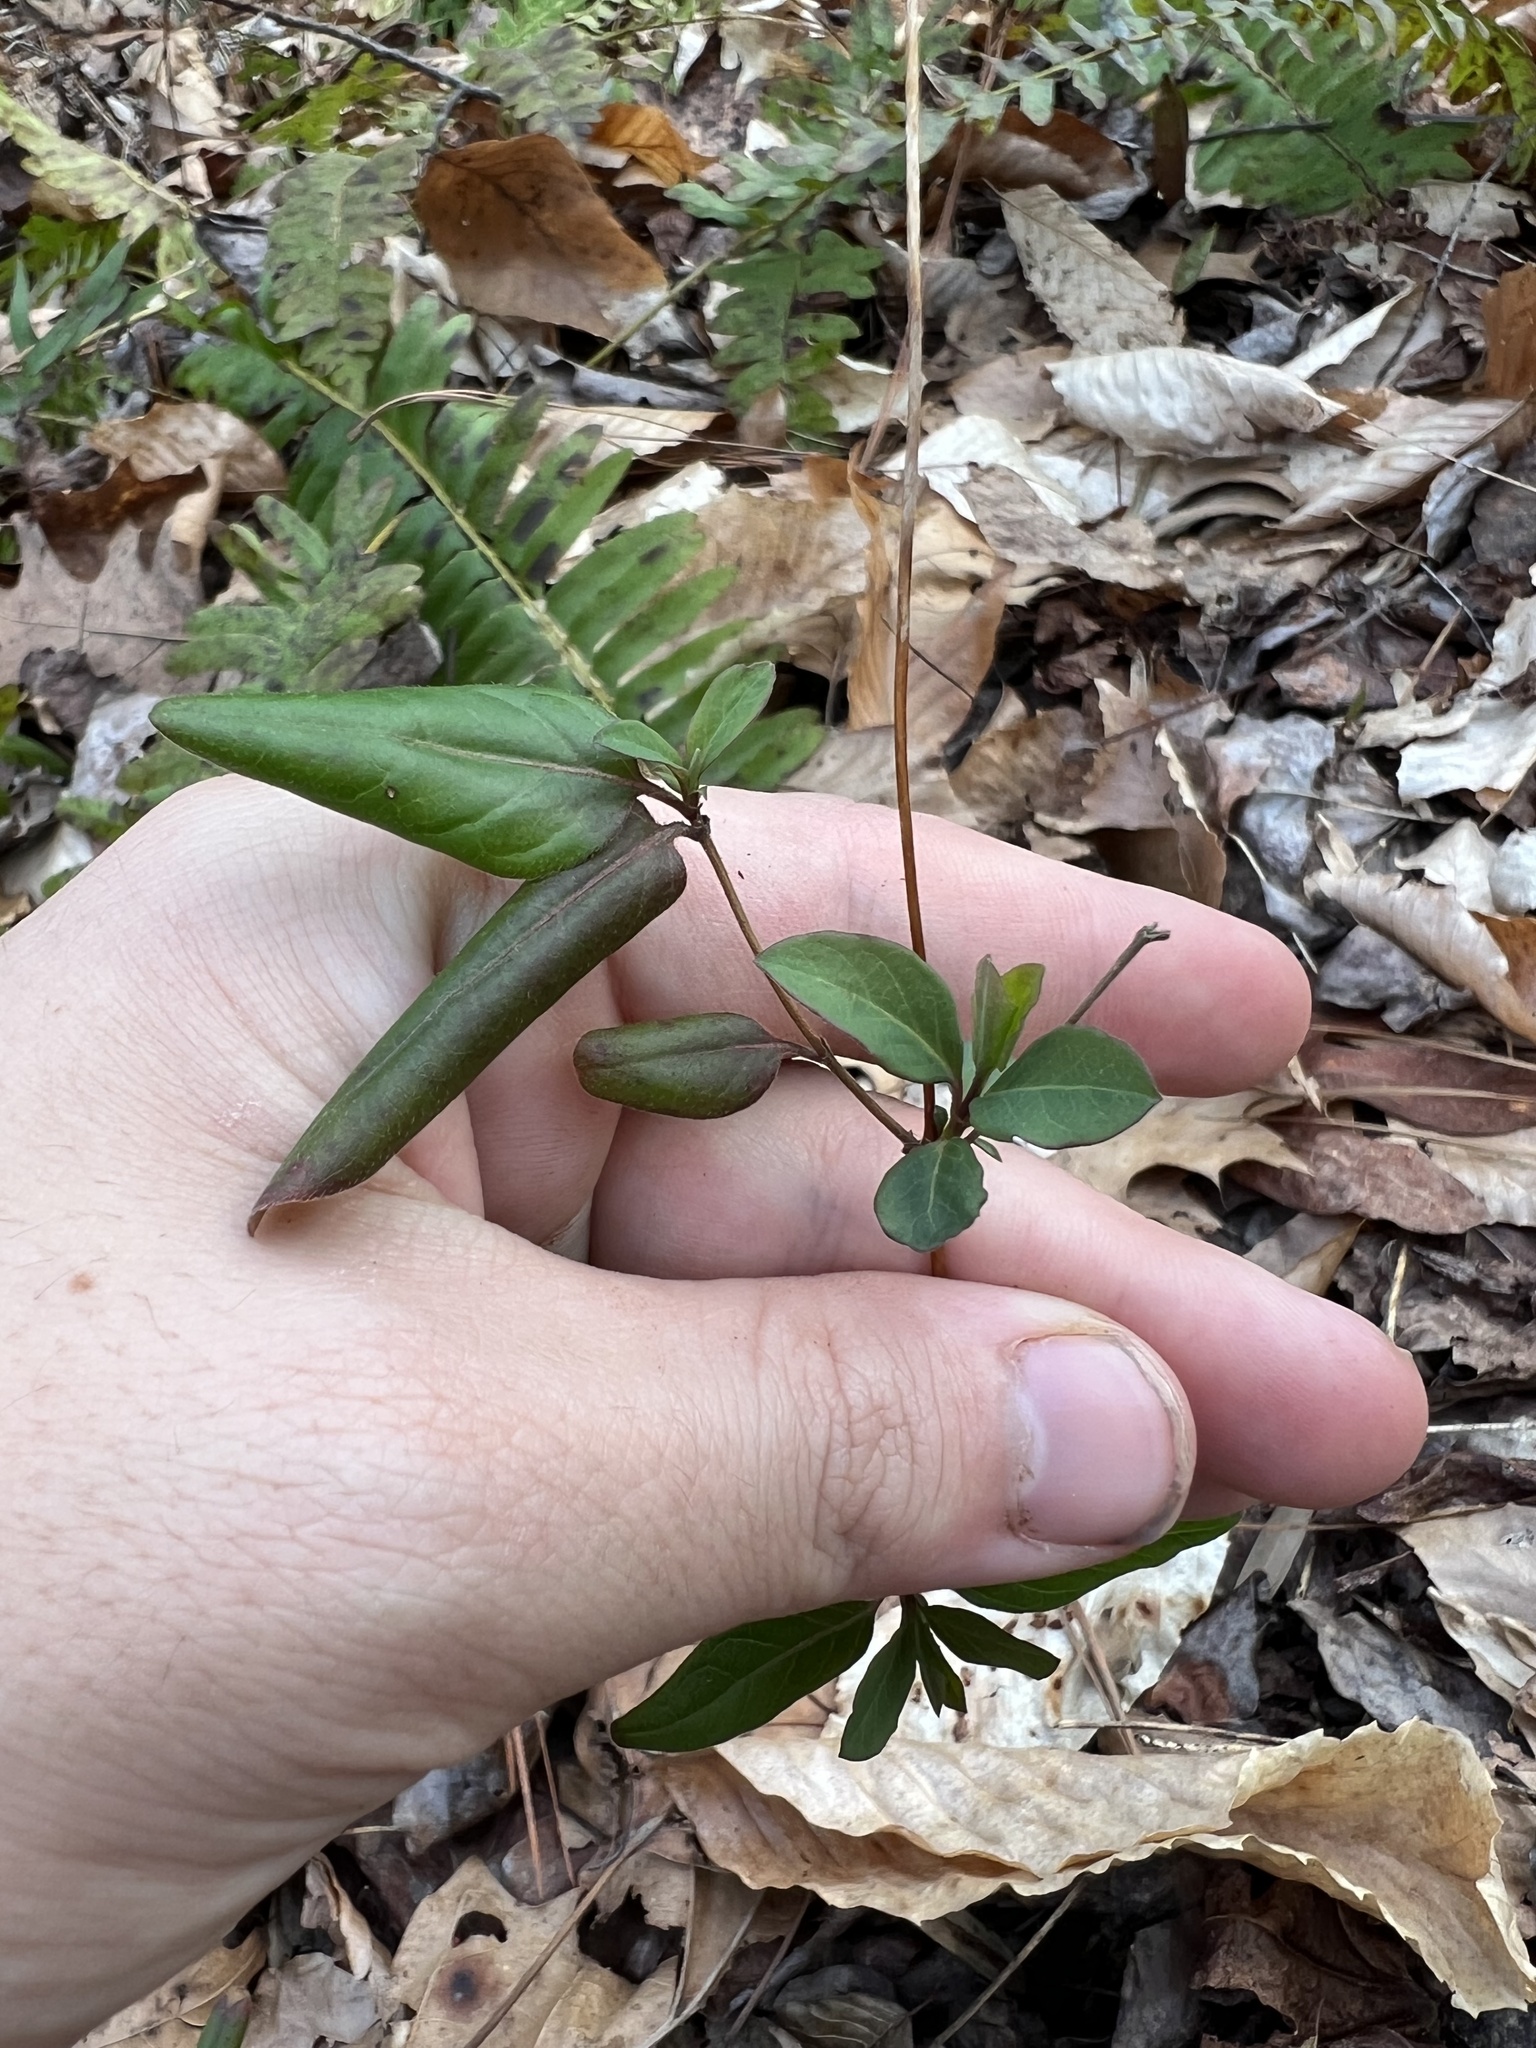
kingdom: Plantae
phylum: Tracheophyta
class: Magnoliopsida
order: Dipsacales
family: Caprifoliaceae
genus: Lonicera
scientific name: Lonicera japonica
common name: Japanese honeysuckle
